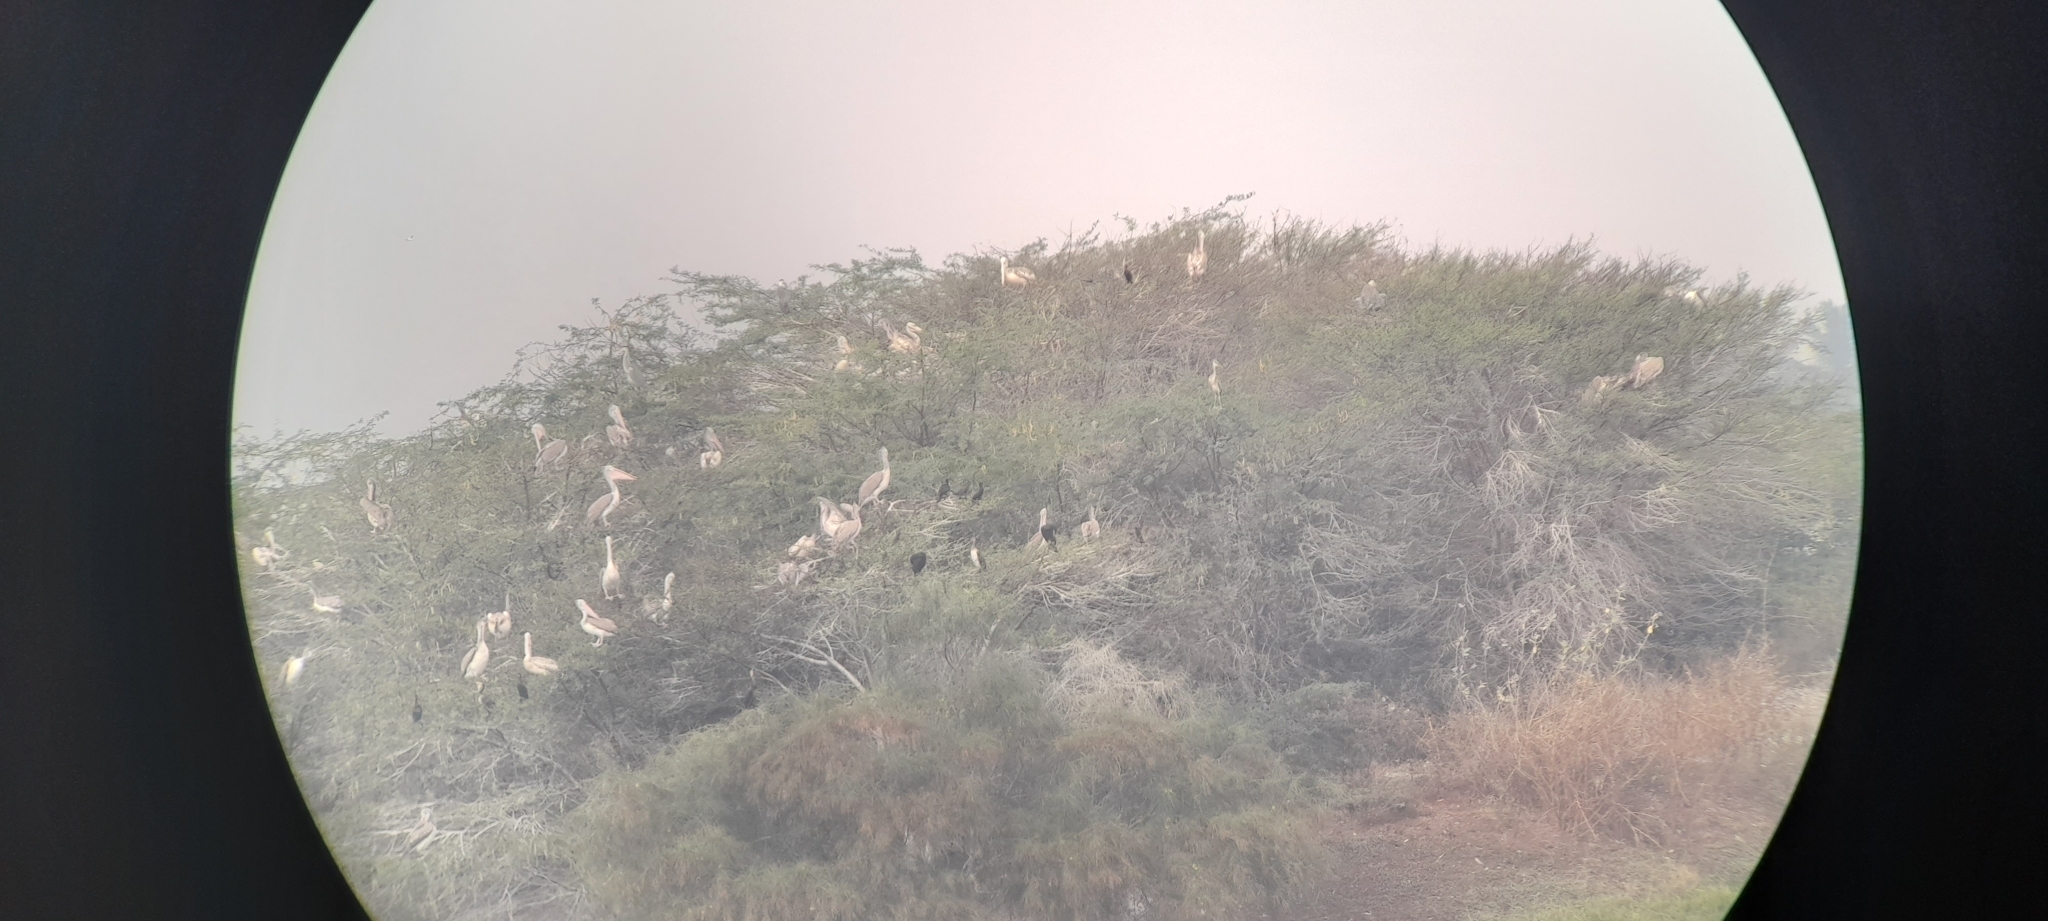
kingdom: Animalia
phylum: Chordata
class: Aves
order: Pelecaniformes
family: Pelecanidae
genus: Pelecanus
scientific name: Pelecanus philippensis
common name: Spot-billed pelican
